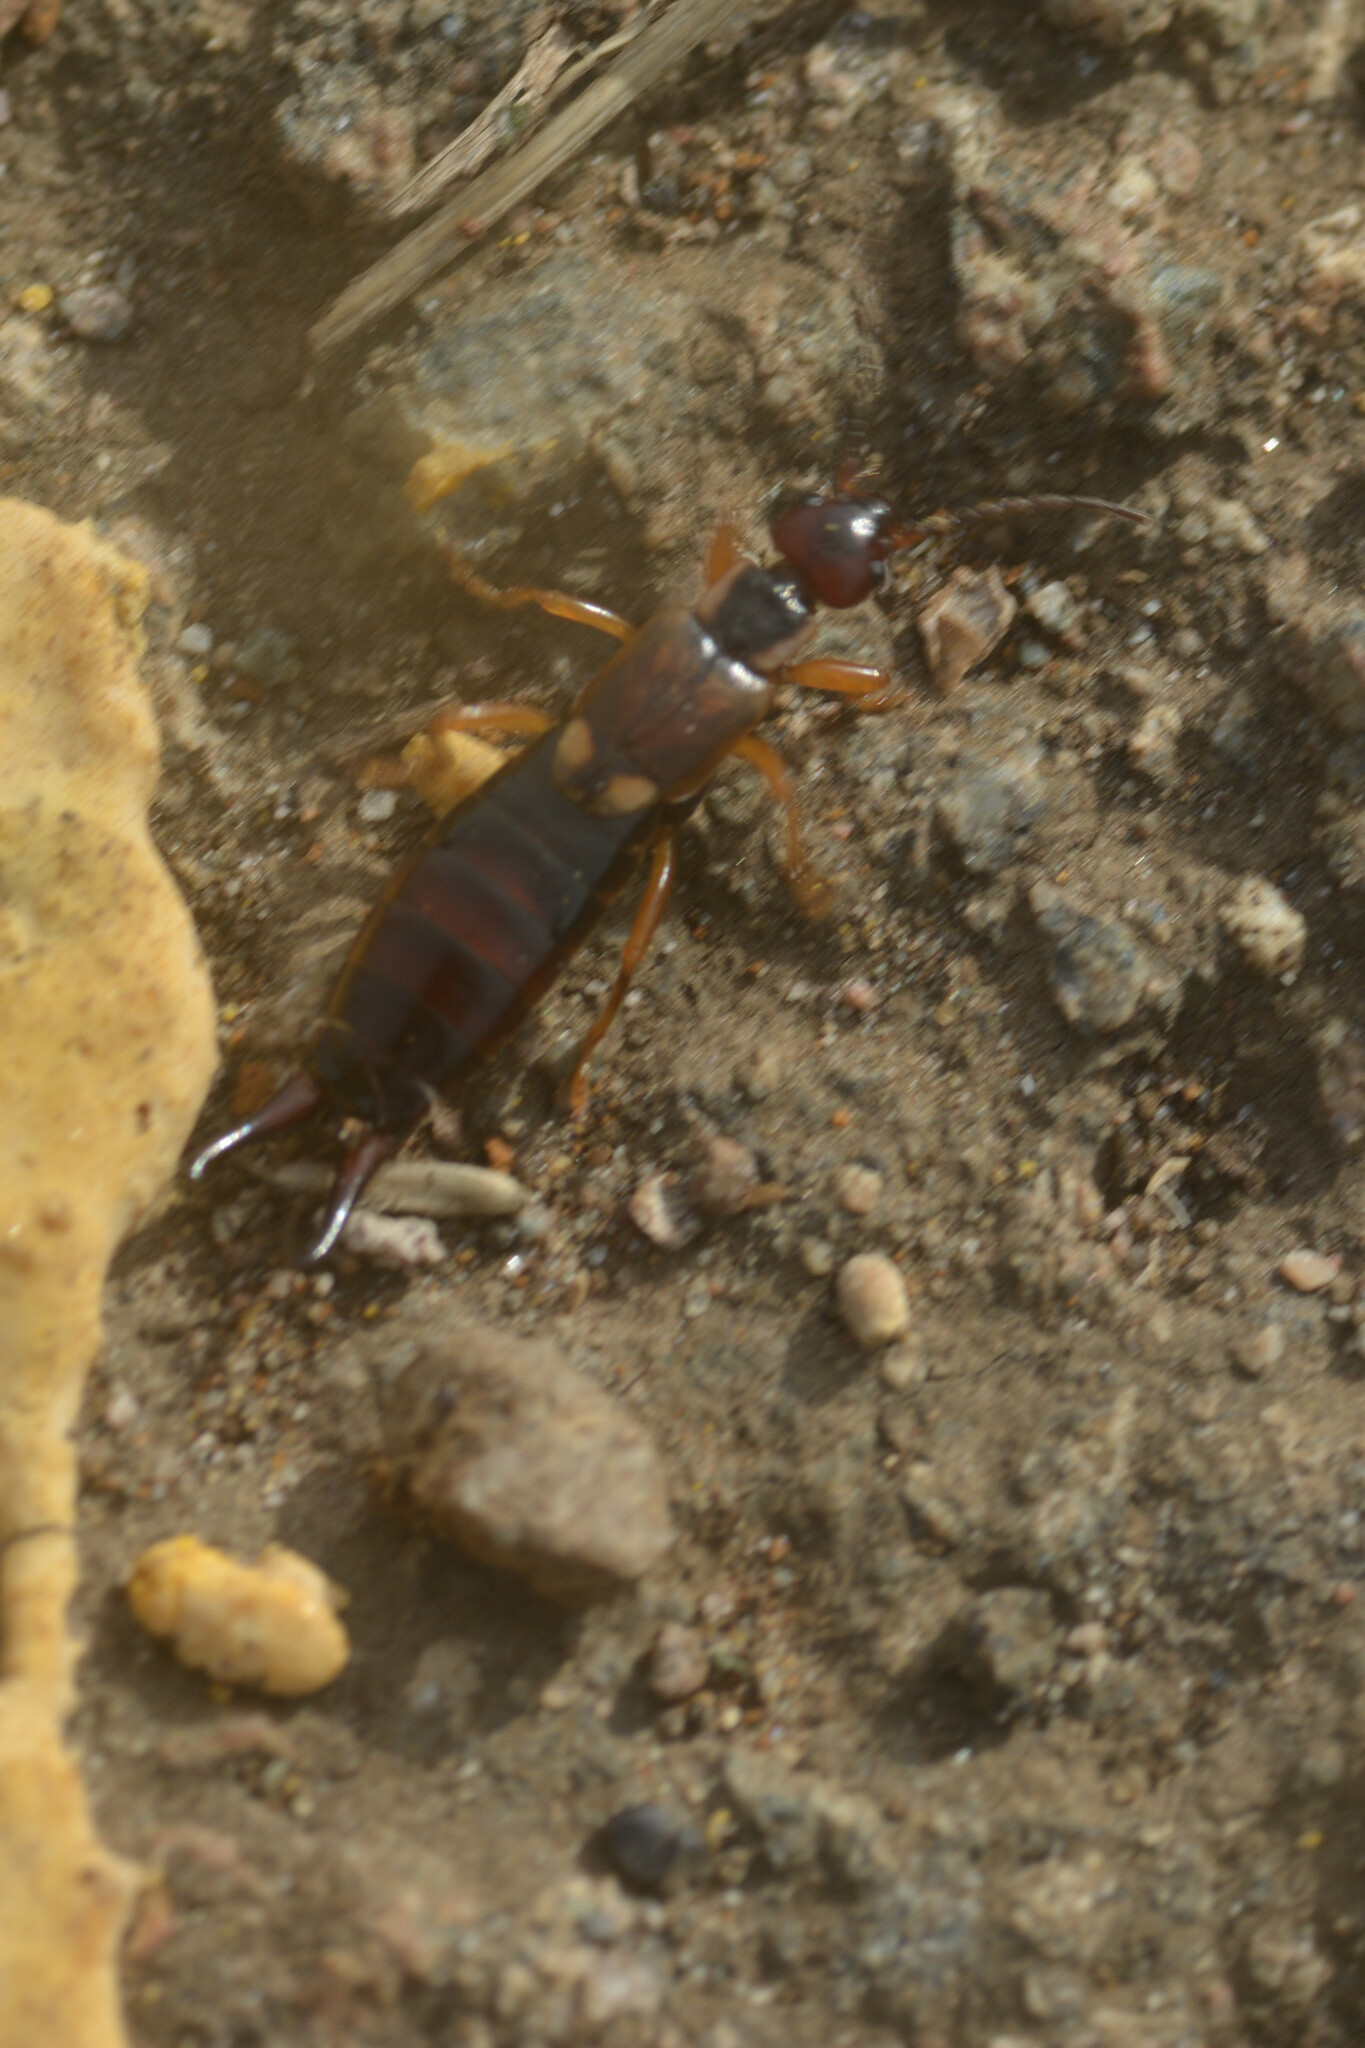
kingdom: Animalia
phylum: Arthropoda
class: Insecta
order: Dermaptera
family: Forficulidae
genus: Forficula
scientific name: Forficula
